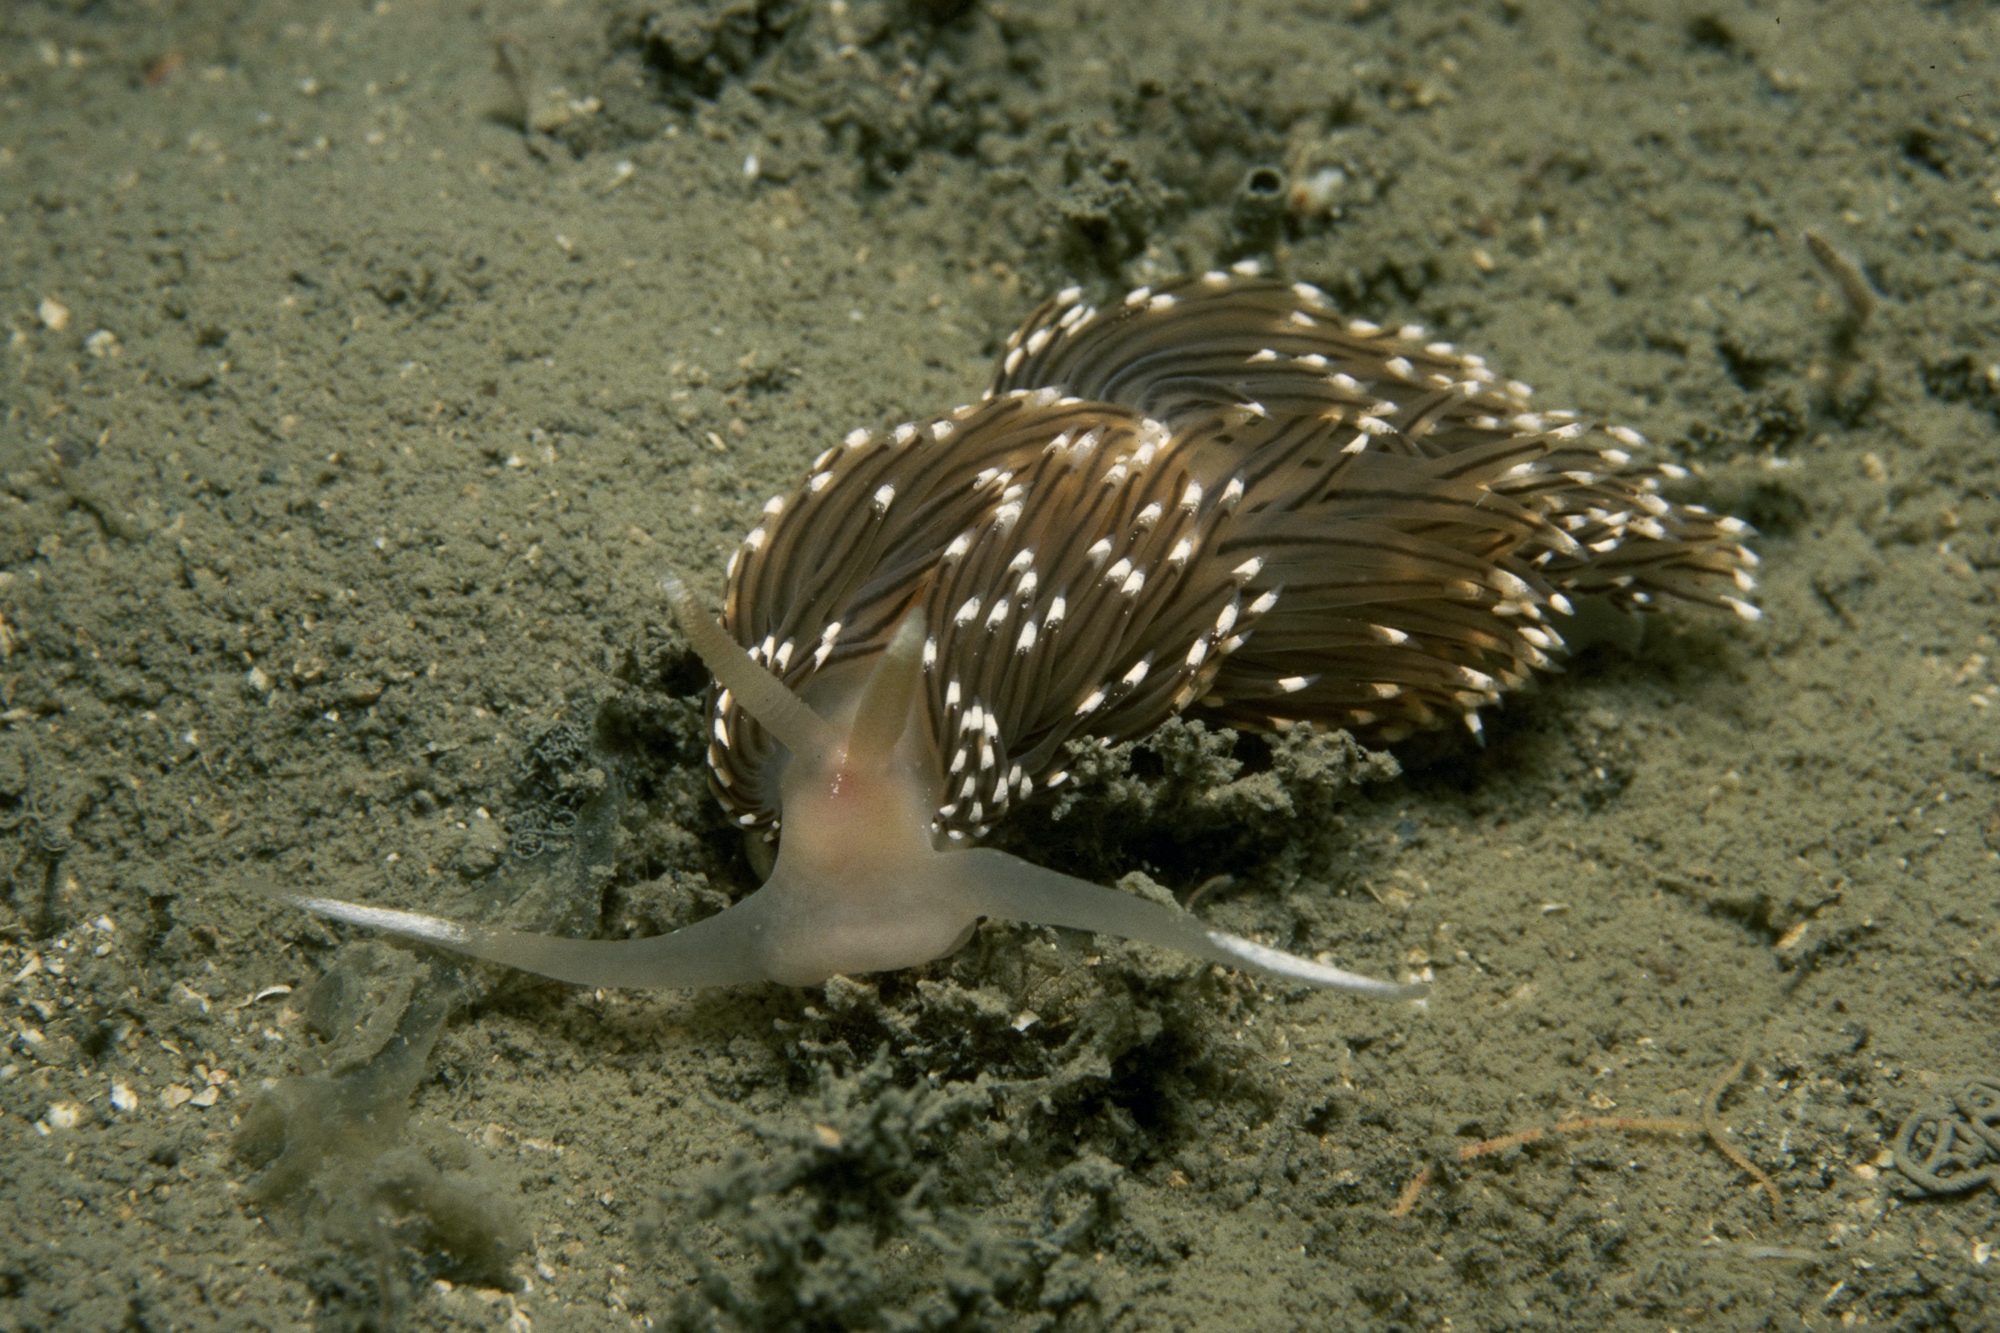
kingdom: Animalia
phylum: Mollusca
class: Gastropoda
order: Nudibranchia
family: Facelinidae
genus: Facelina
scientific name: Facelina bostoniensis
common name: Boston facelina
